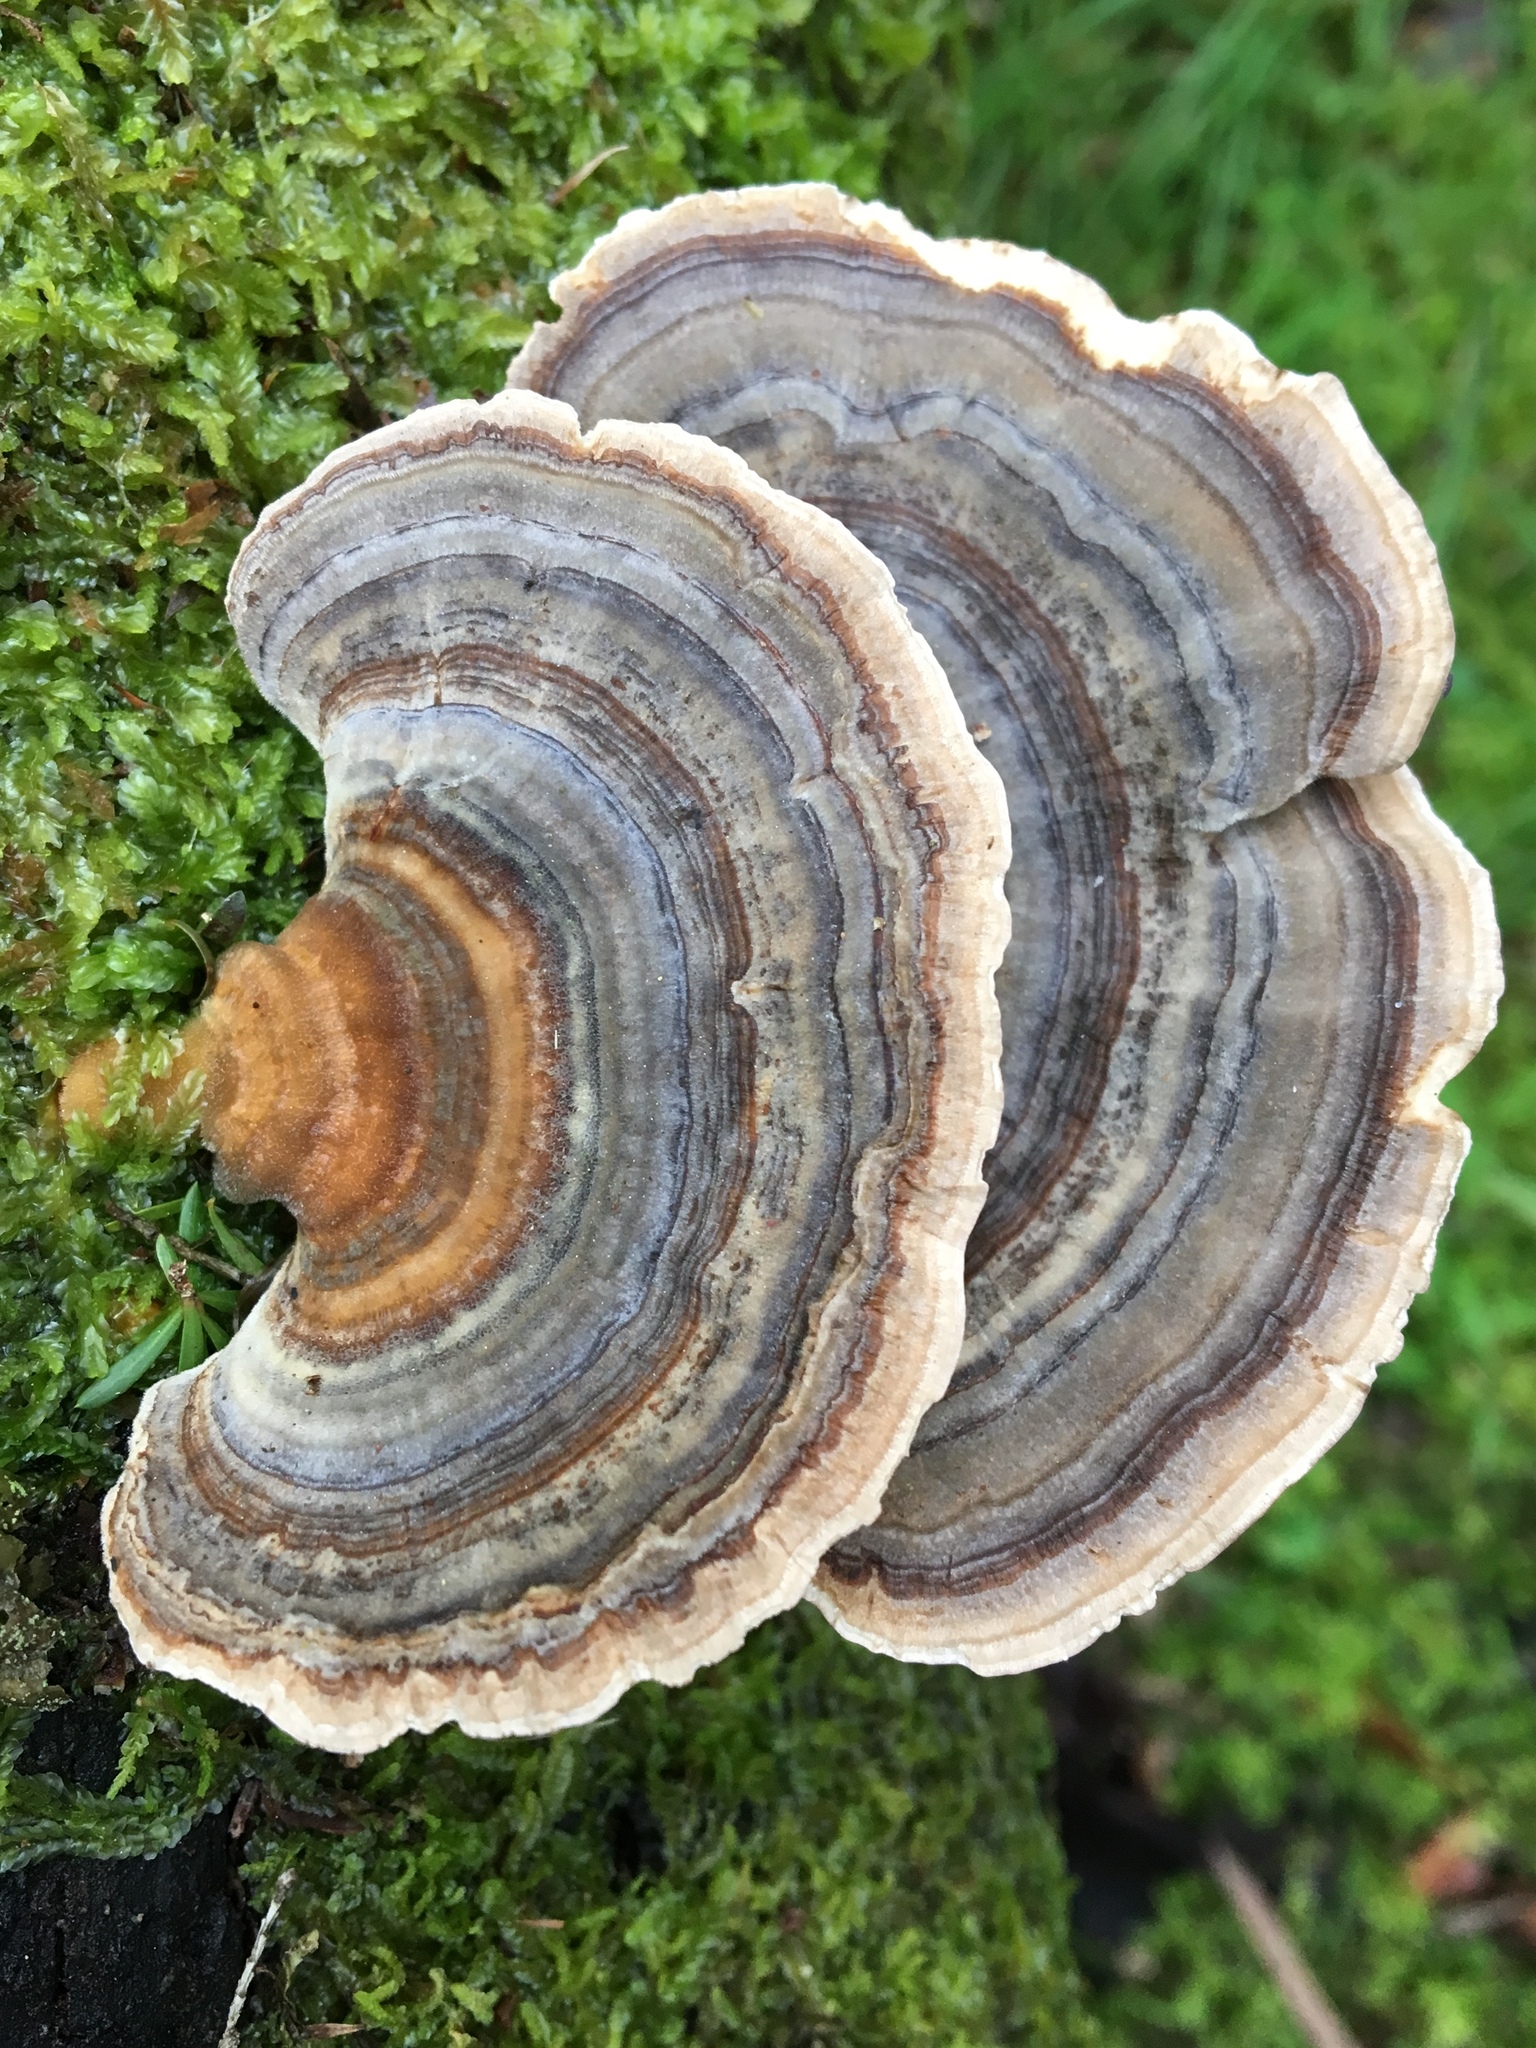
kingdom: Fungi
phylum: Basidiomycota
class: Agaricomycetes
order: Polyporales
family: Polyporaceae
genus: Trametes
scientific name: Trametes versicolor
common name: Turkeytail
